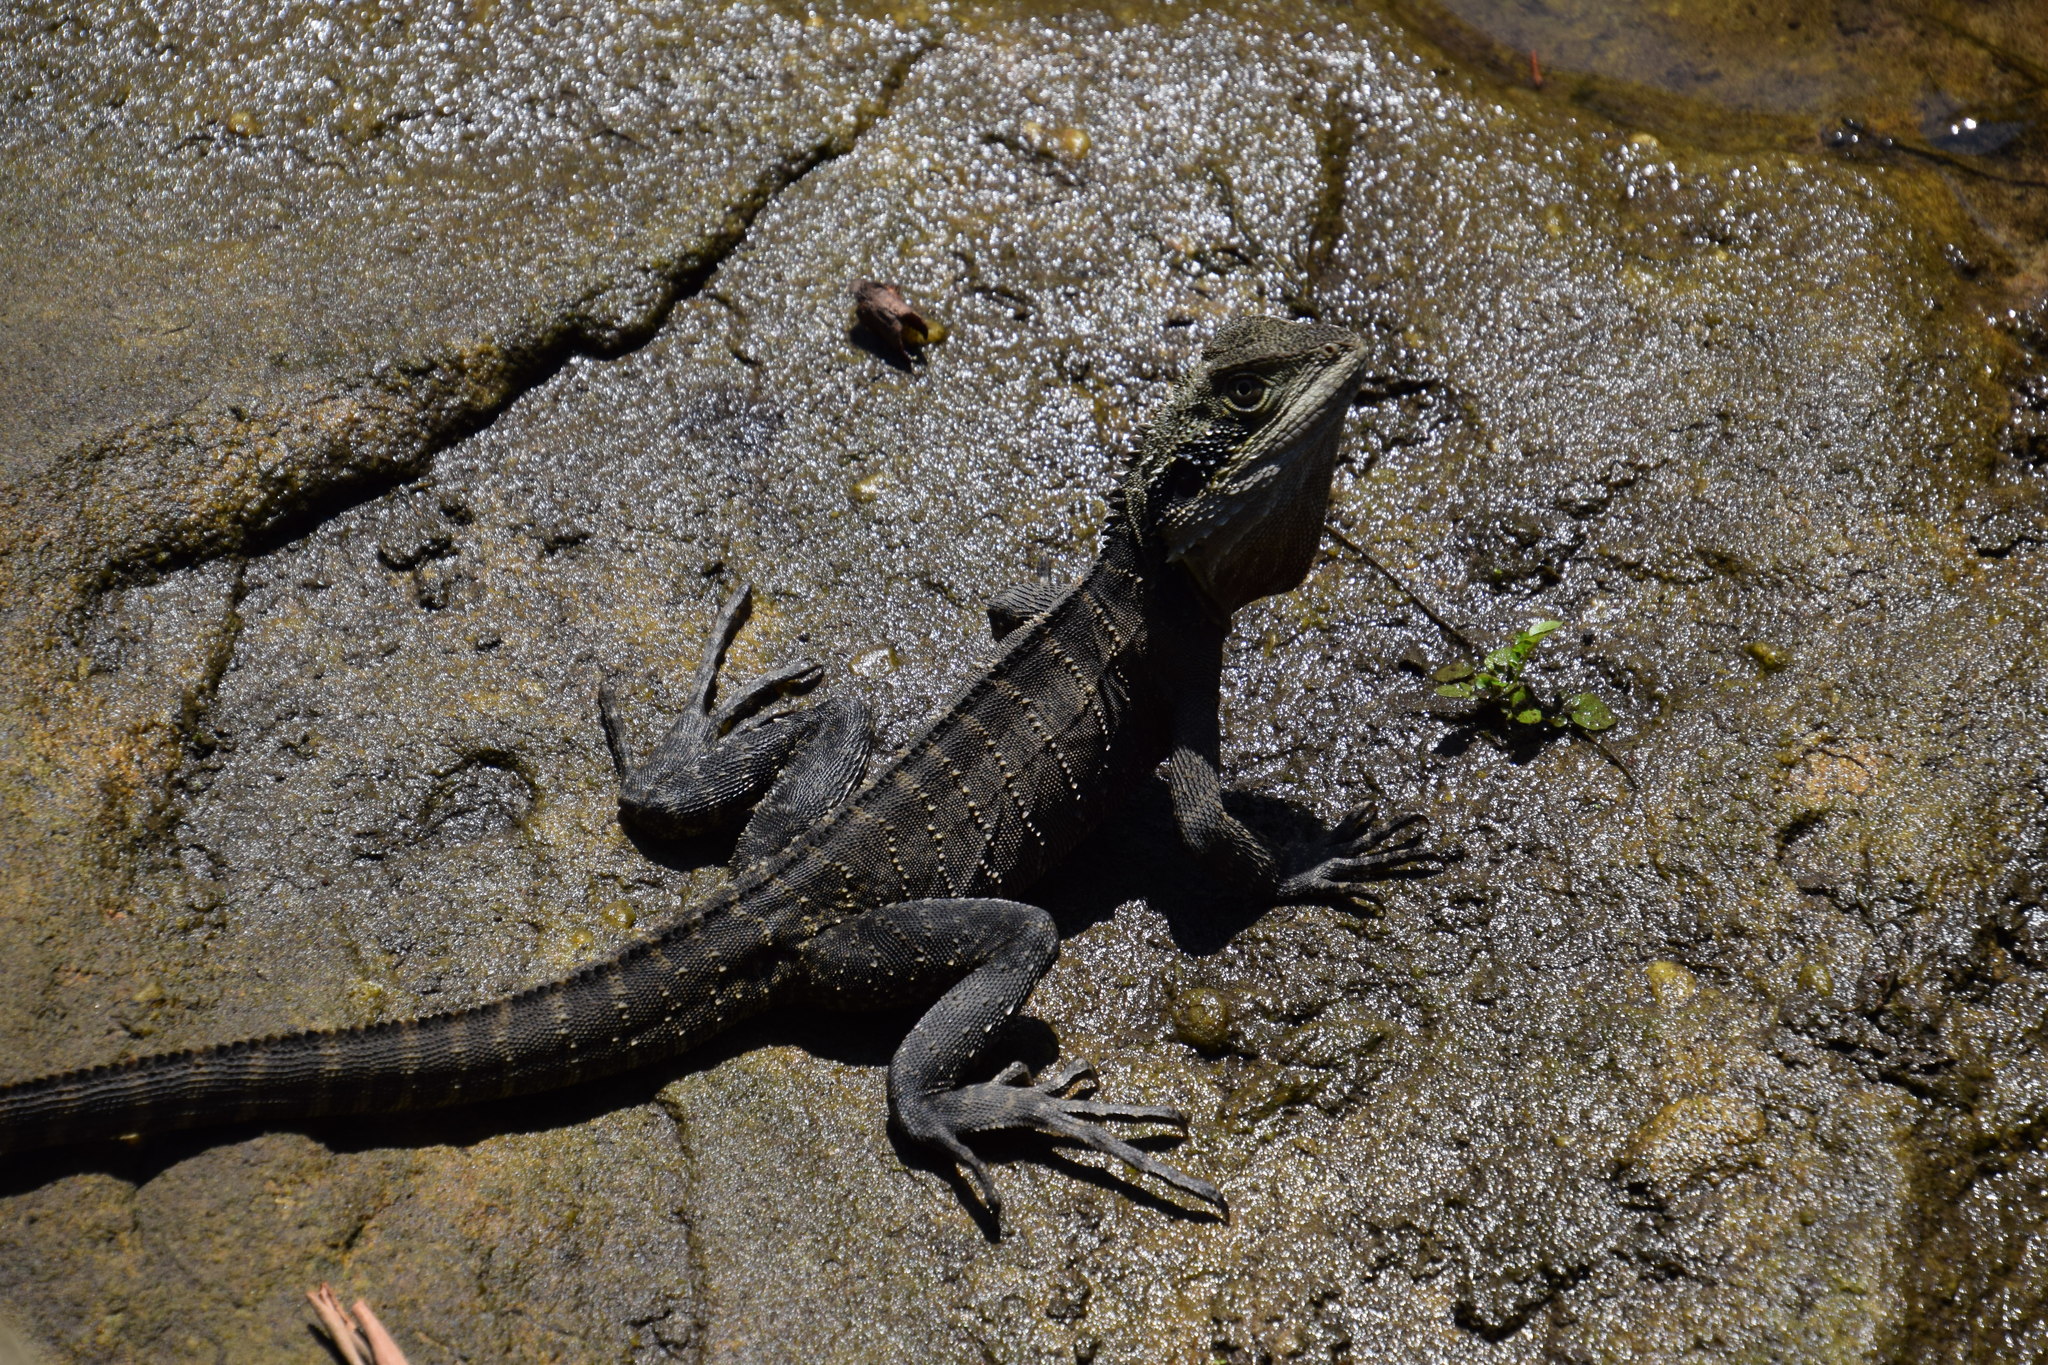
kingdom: Animalia
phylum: Chordata
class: Squamata
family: Agamidae
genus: Intellagama
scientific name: Intellagama lesueurii
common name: Eastern water dragon
